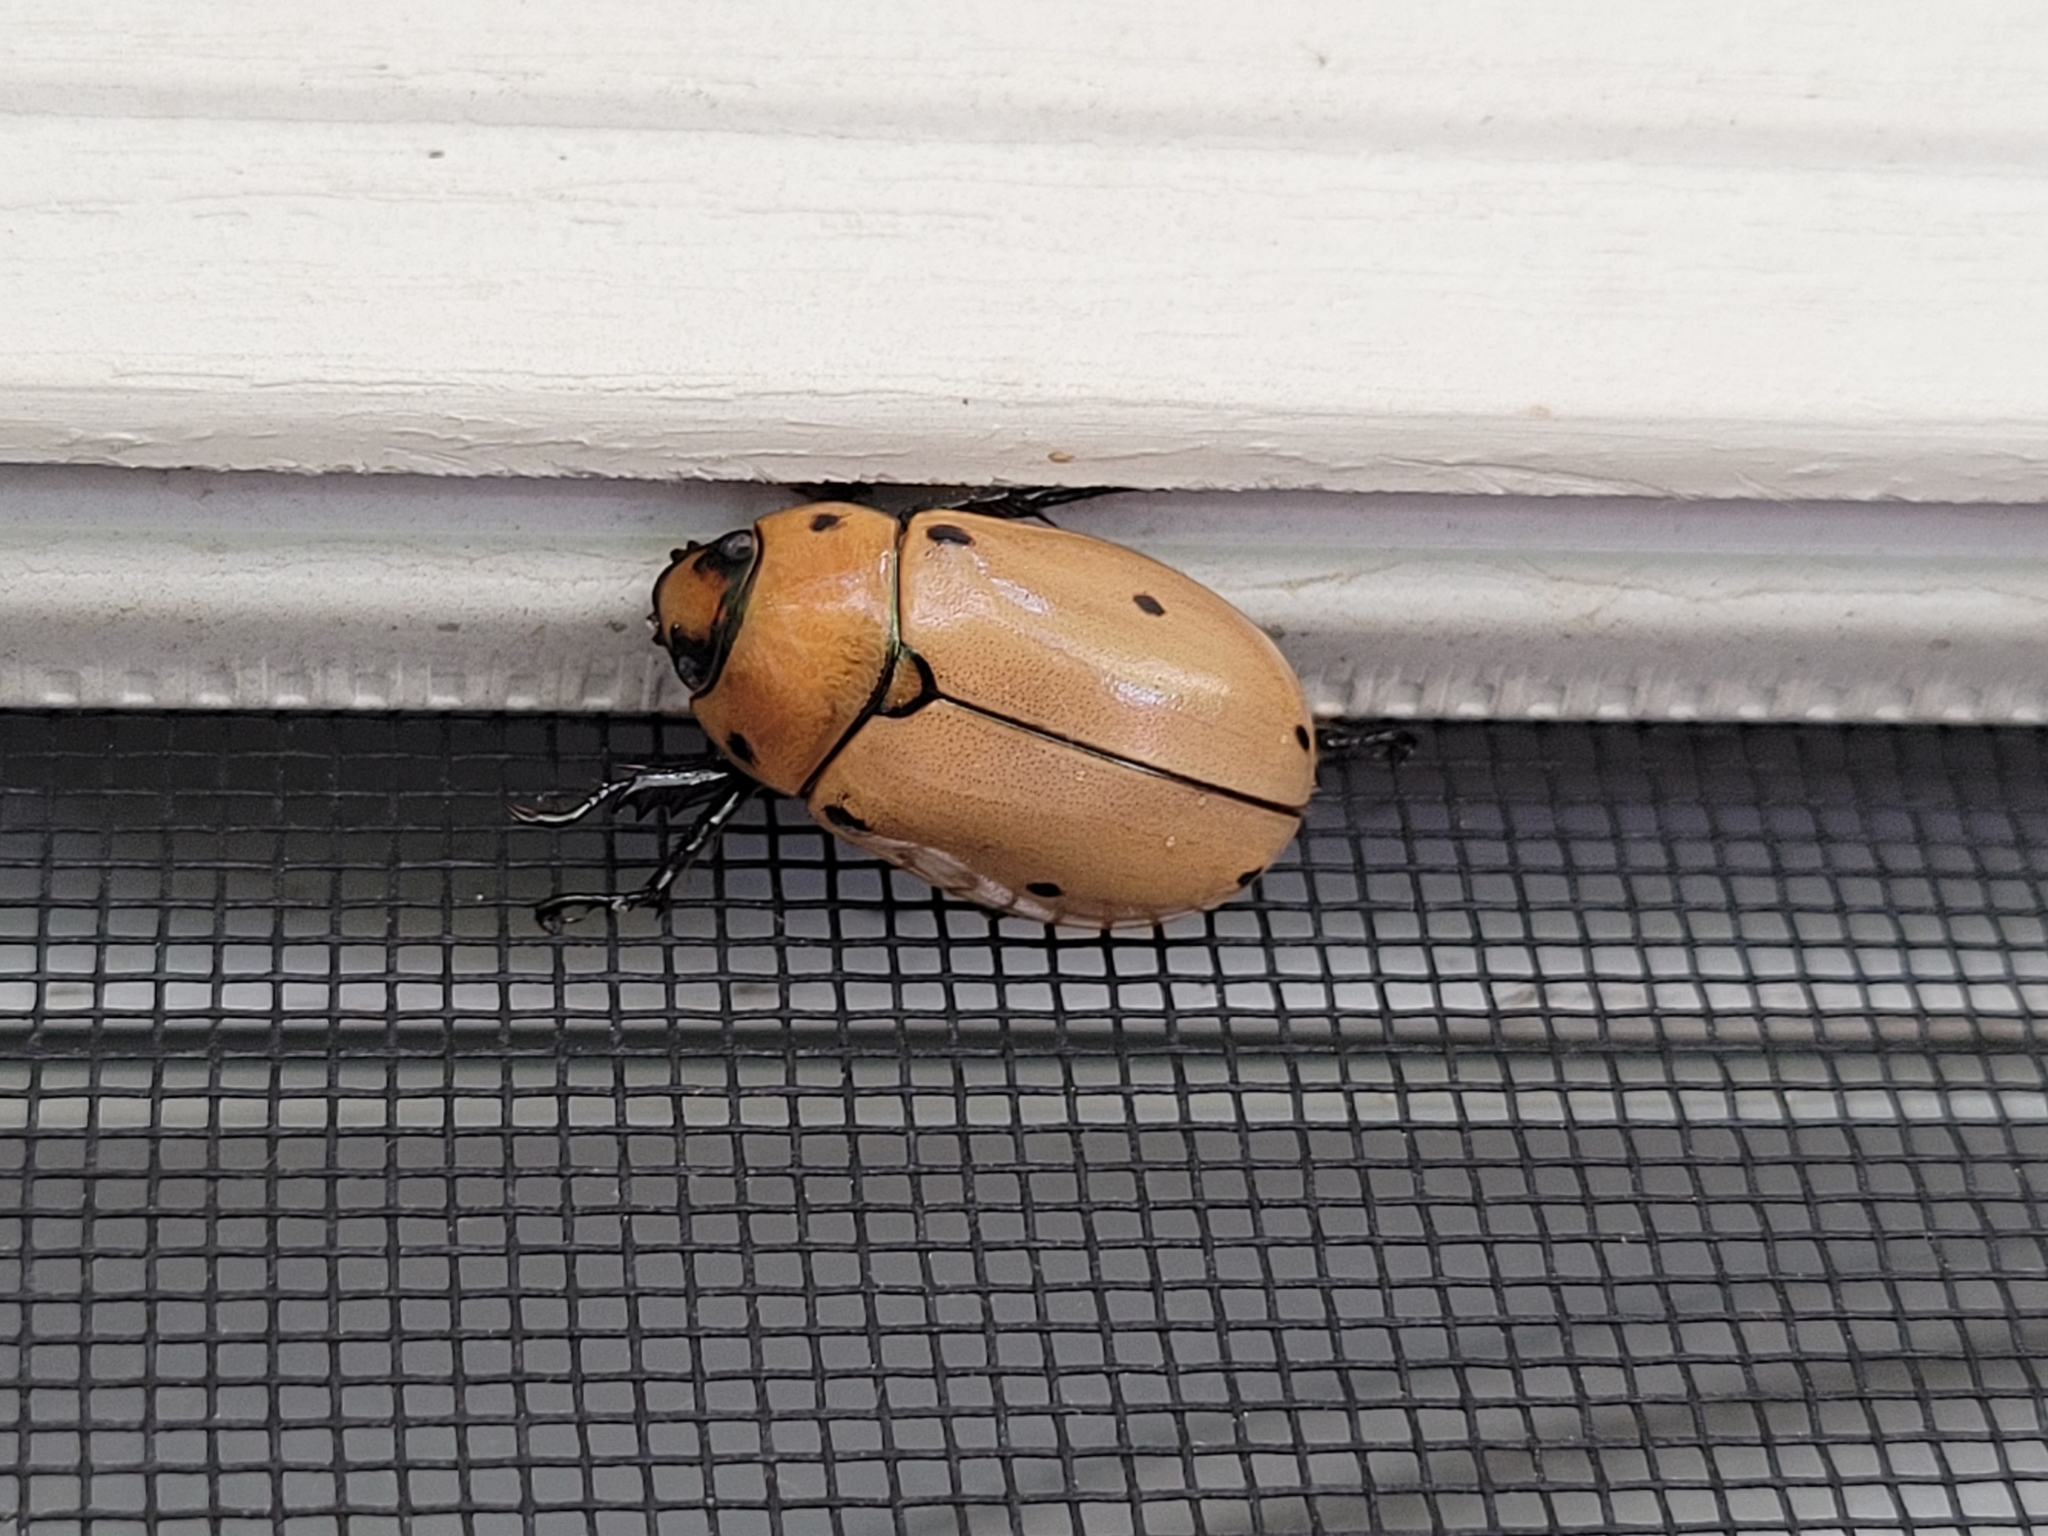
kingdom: Animalia
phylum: Arthropoda
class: Insecta
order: Coleoptera
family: Scarabaeidae
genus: Pelidnota
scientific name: Pelidnota punctata
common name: Grapevine beetle
